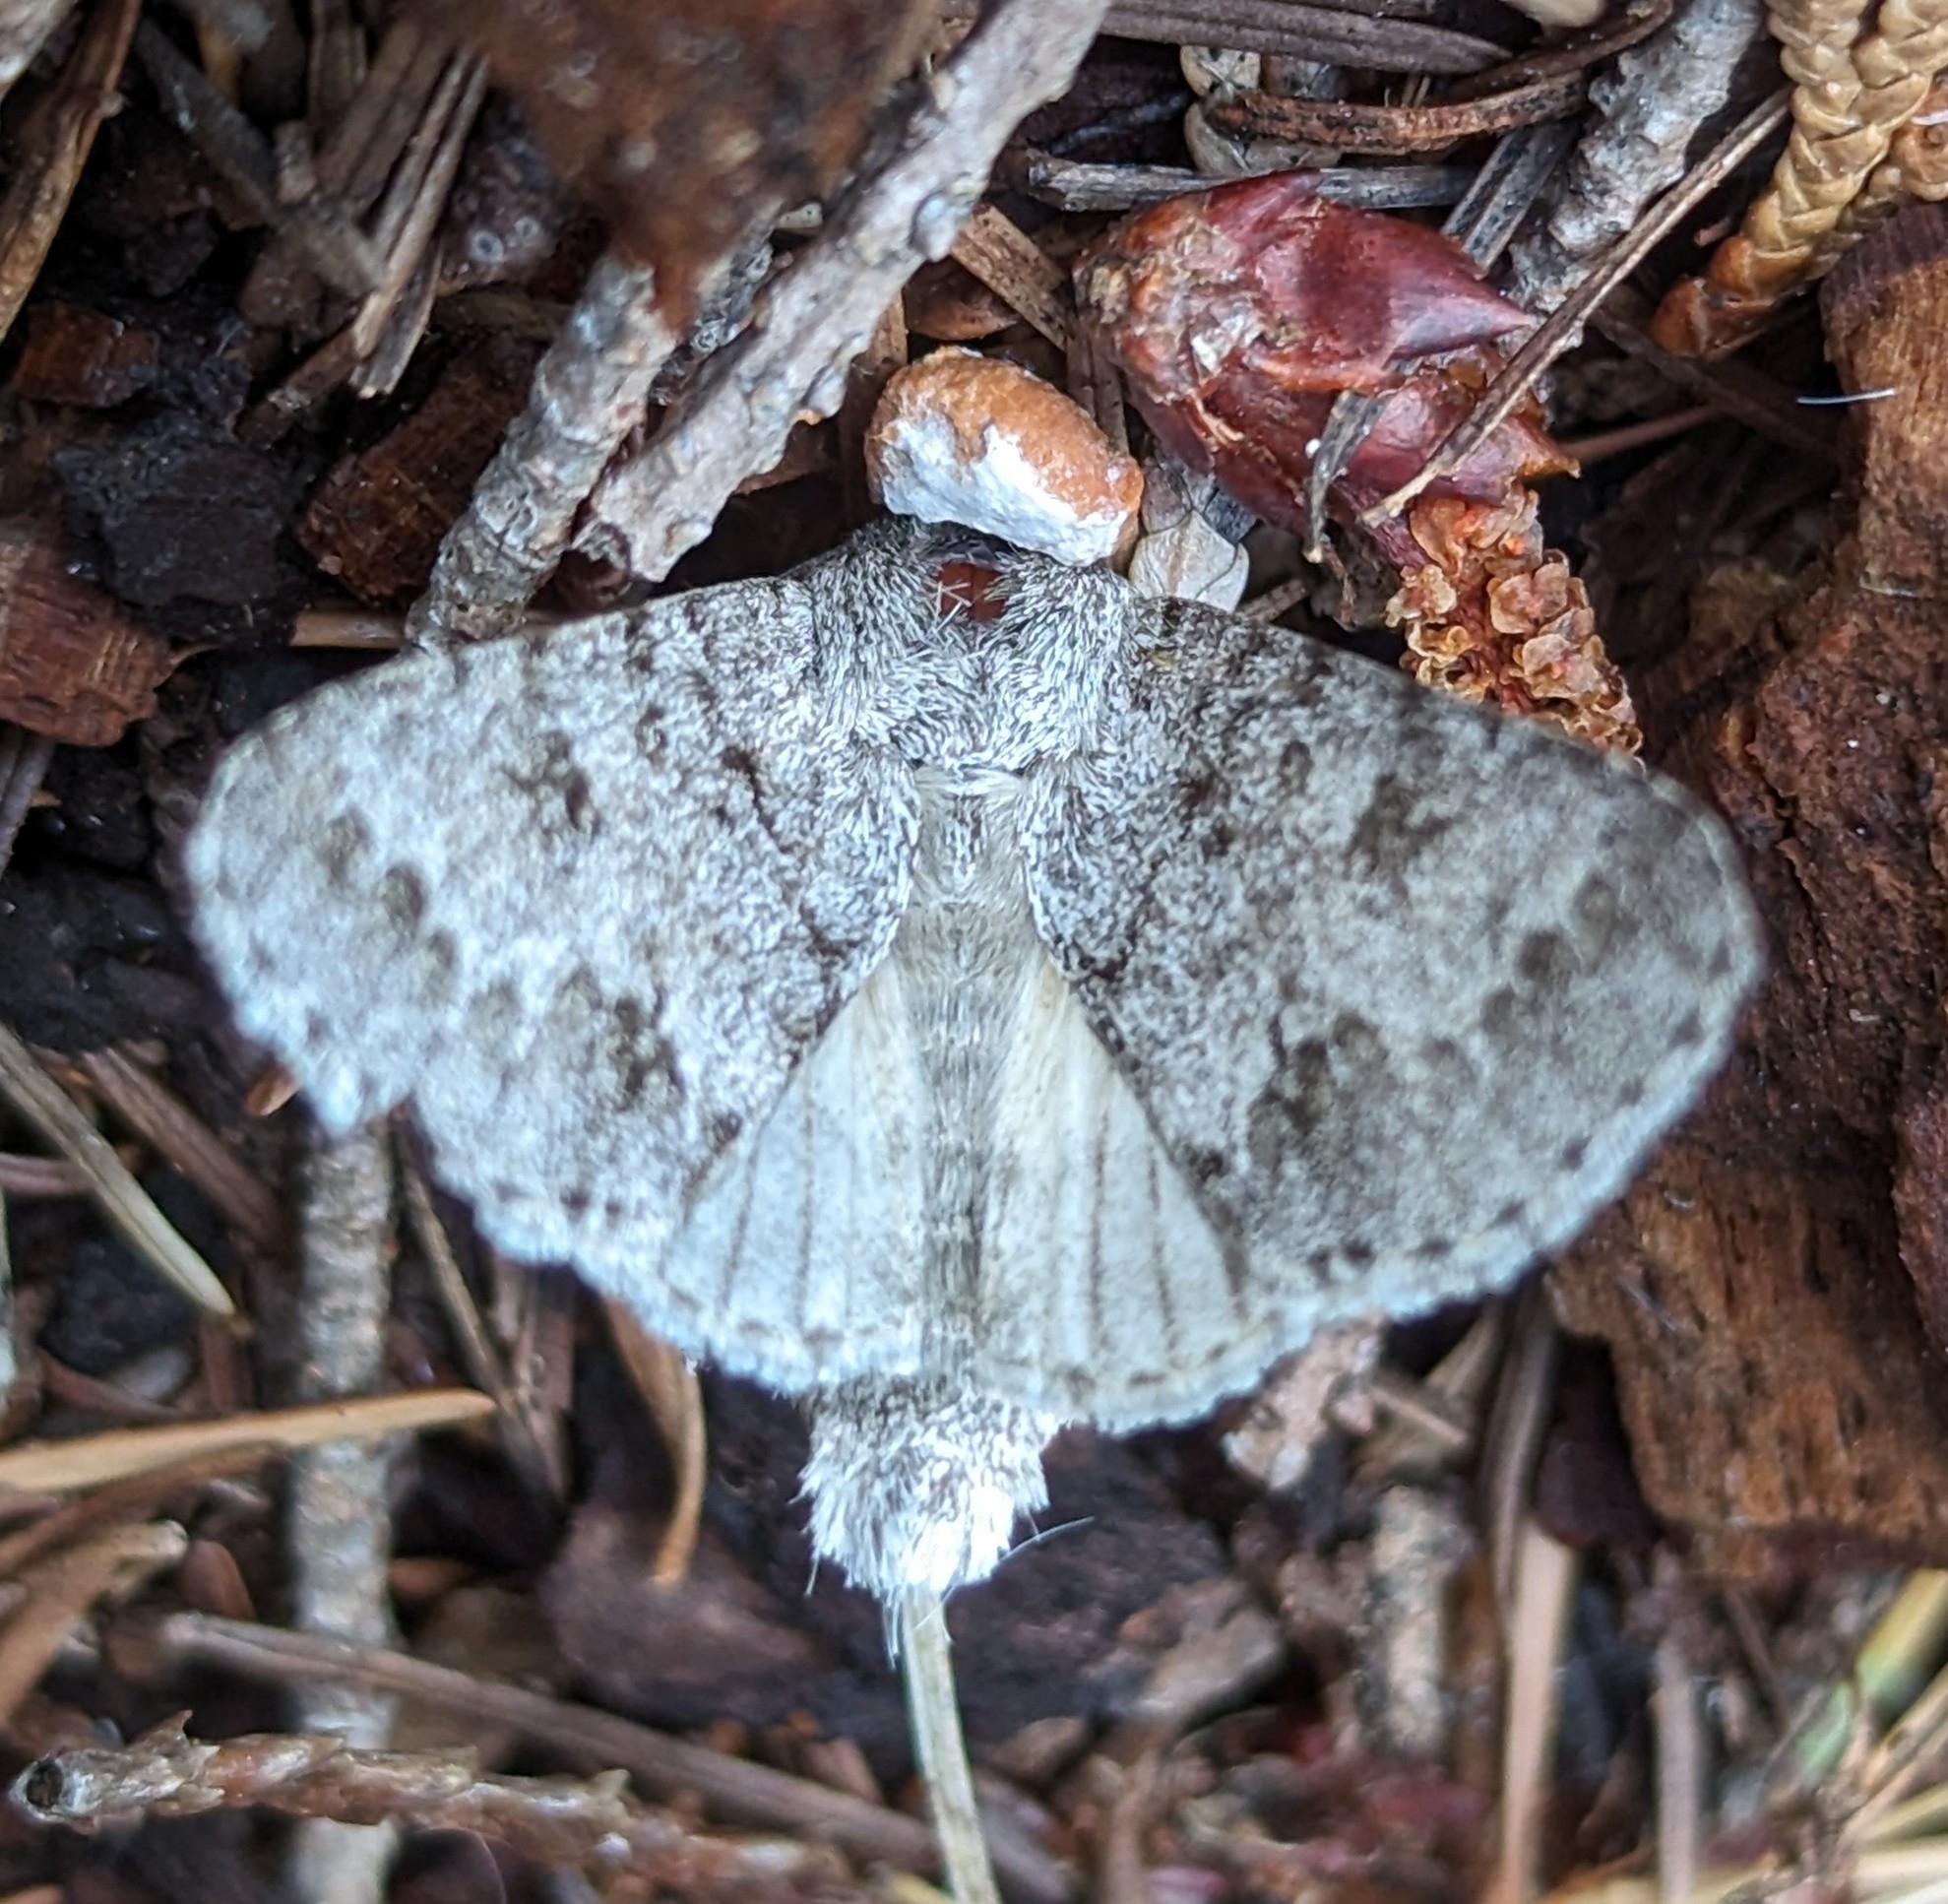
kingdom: Animalia
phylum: Arthropoda
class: Insecta
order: Lepidoptera
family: Noctuidae
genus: Acronicta
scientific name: Acronicta insita
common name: Large gray dagger
